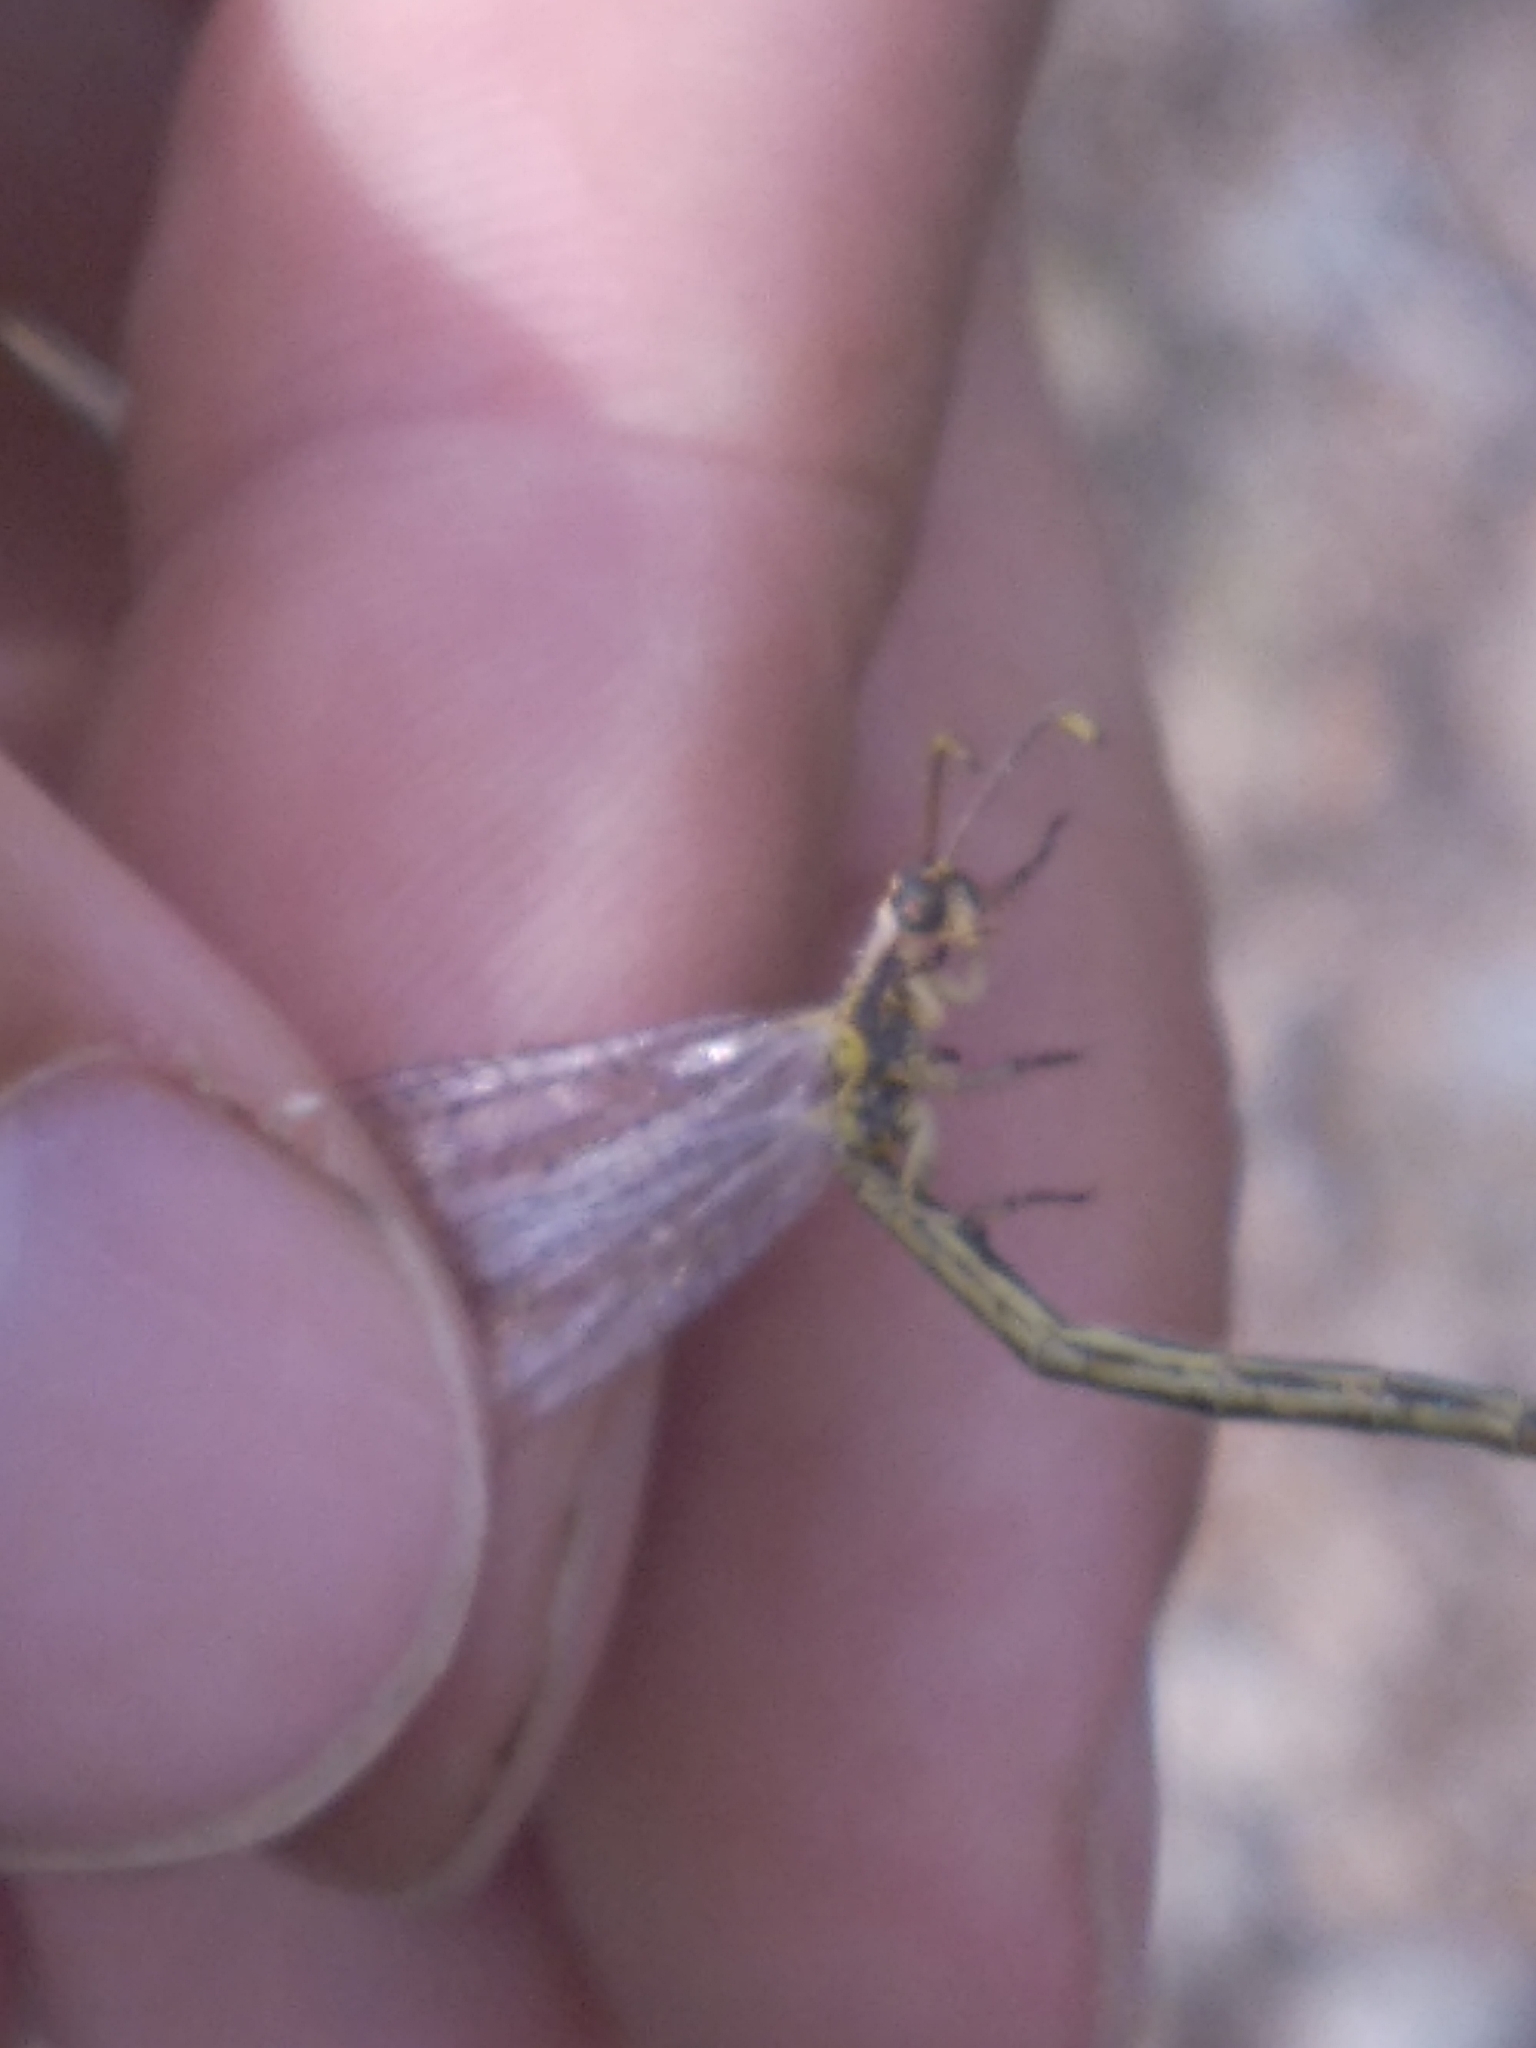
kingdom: Animalia
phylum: Arthropoda
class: Insecta
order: Neuroptera
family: Myrmeleontidae
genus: Macronemurus
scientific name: Macronemurus appendiculatus
